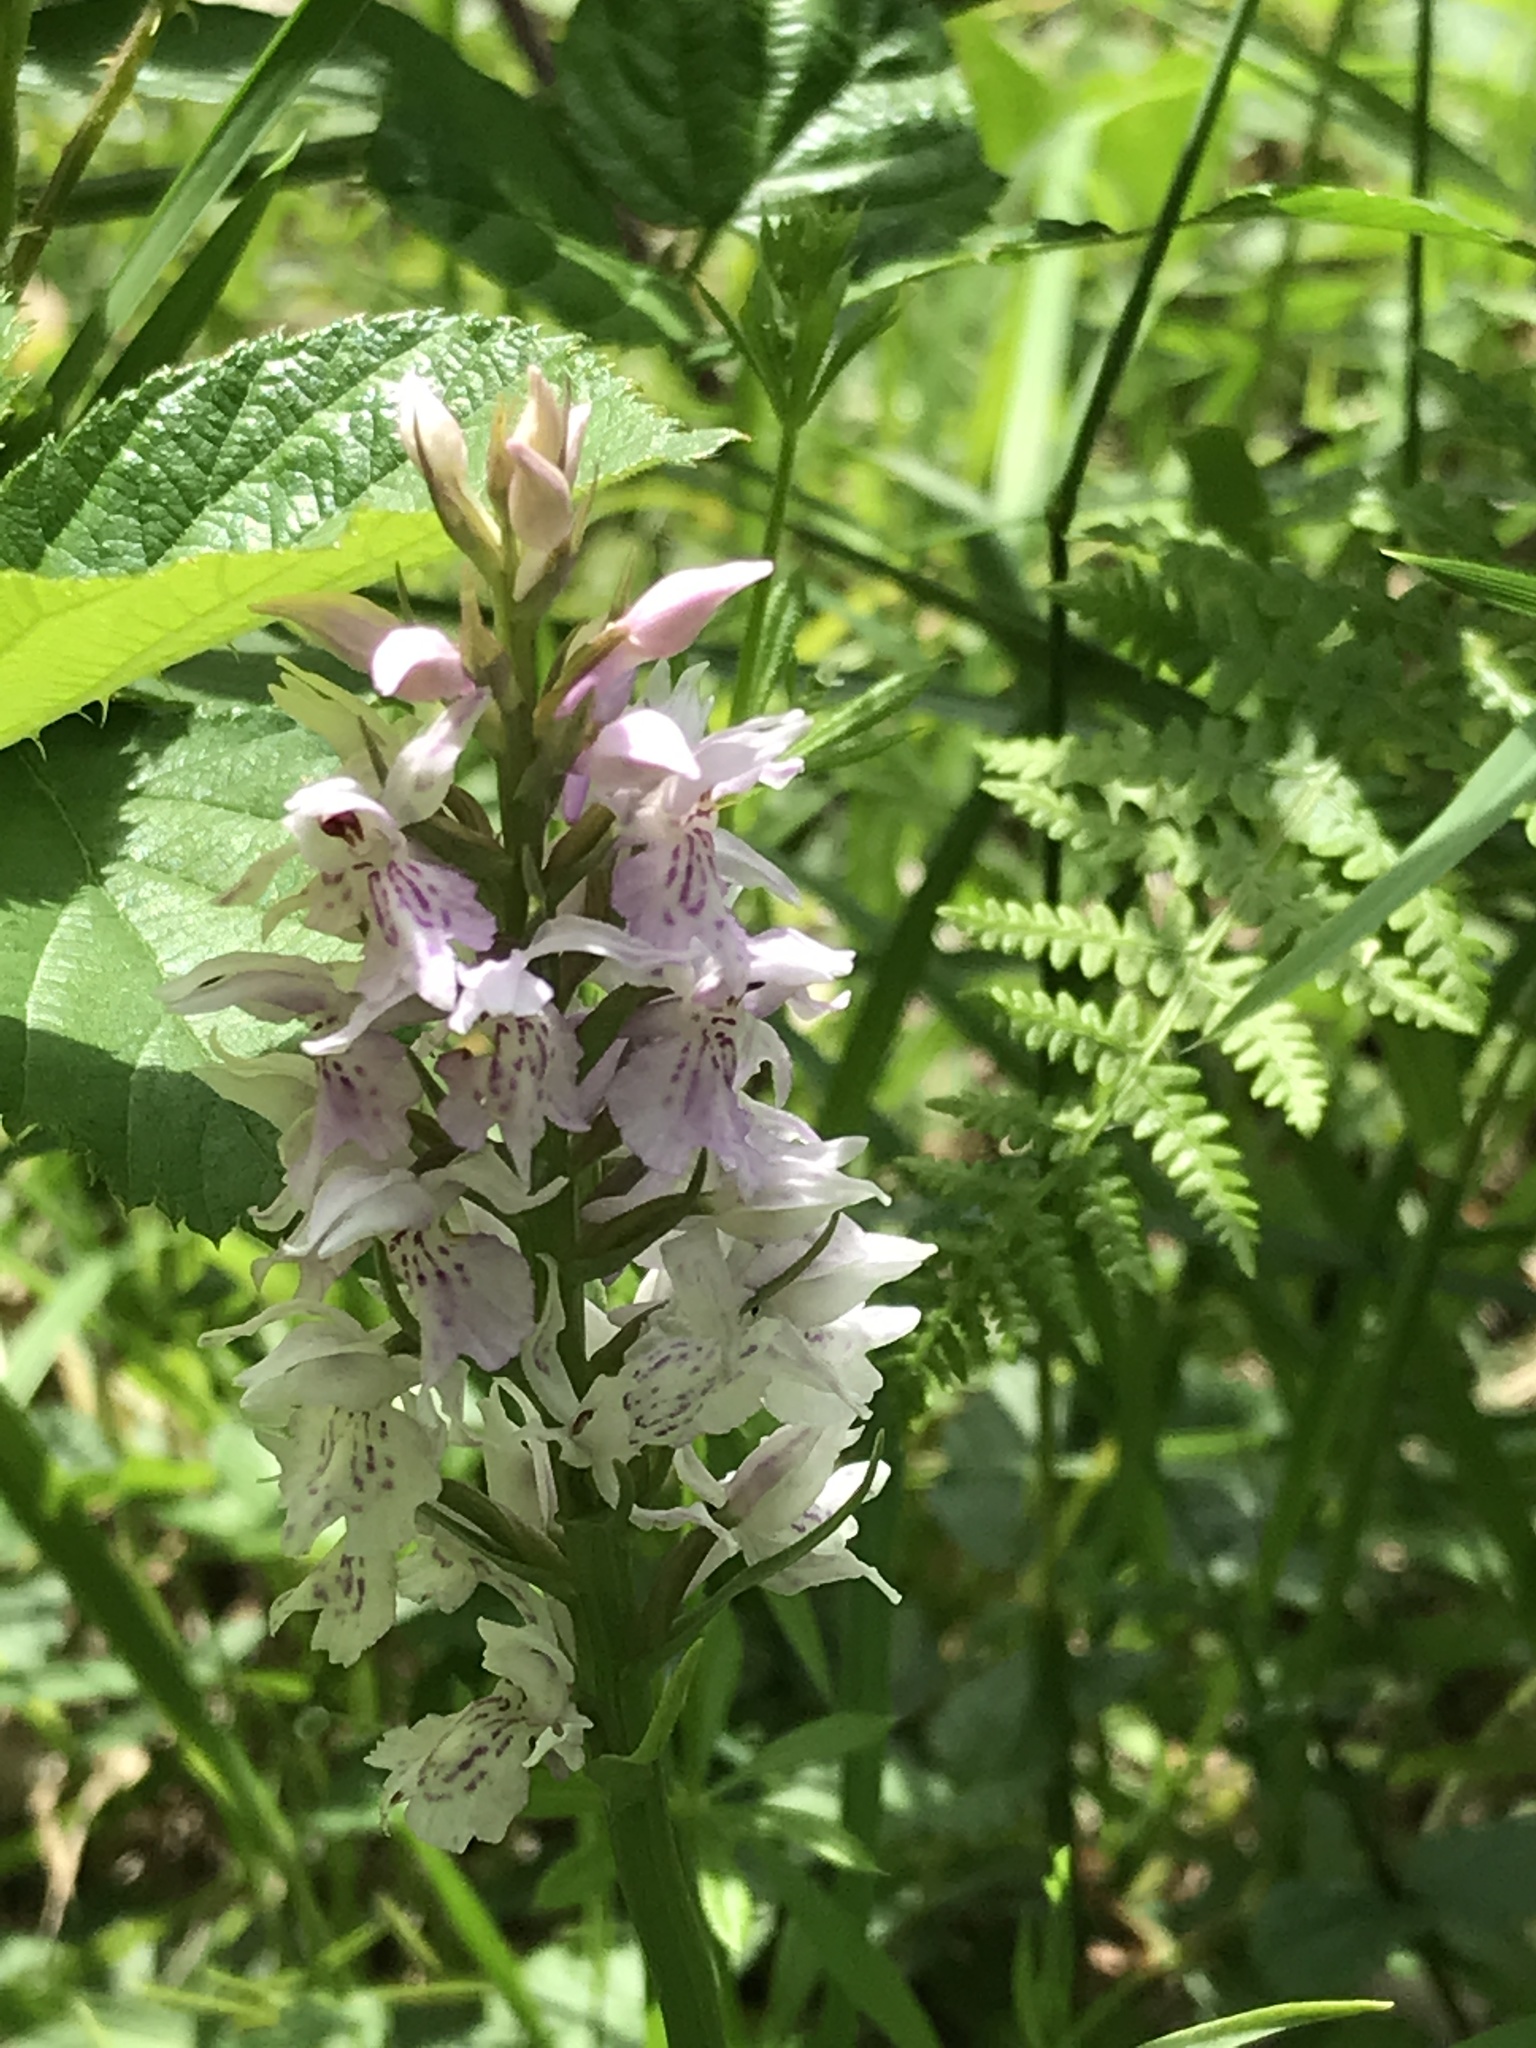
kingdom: Plantae
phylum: Tracheophyta
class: Liliopsida
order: Asparagales
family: Orchidaceae
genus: Dactylorhiza
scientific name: Dactylorhiza maculata
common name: Heath spotted-orchid
